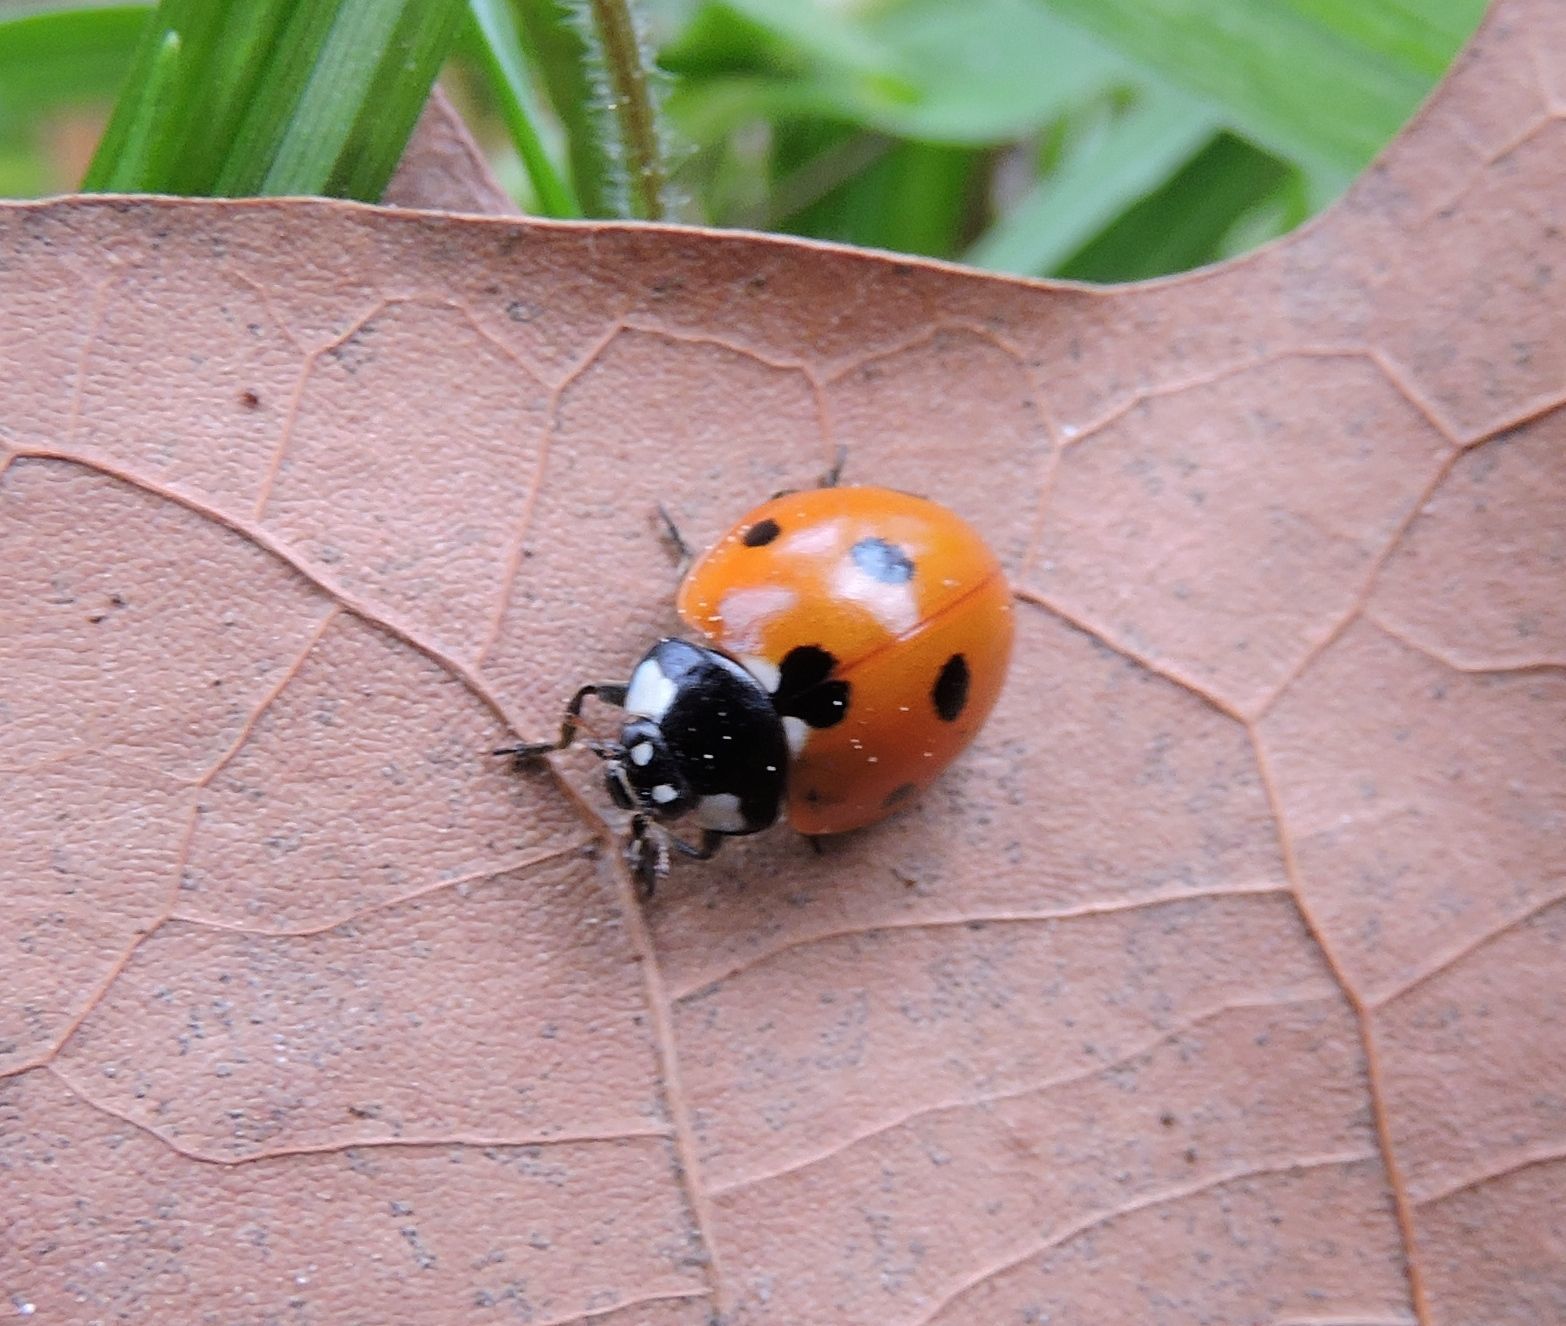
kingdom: Animalia
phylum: Arthropoda
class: Insecta
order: Coleoptera
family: Coccinellidae
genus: Coccinella
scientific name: Coccinella septempunctata
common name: Sevenspotted lady beetle
